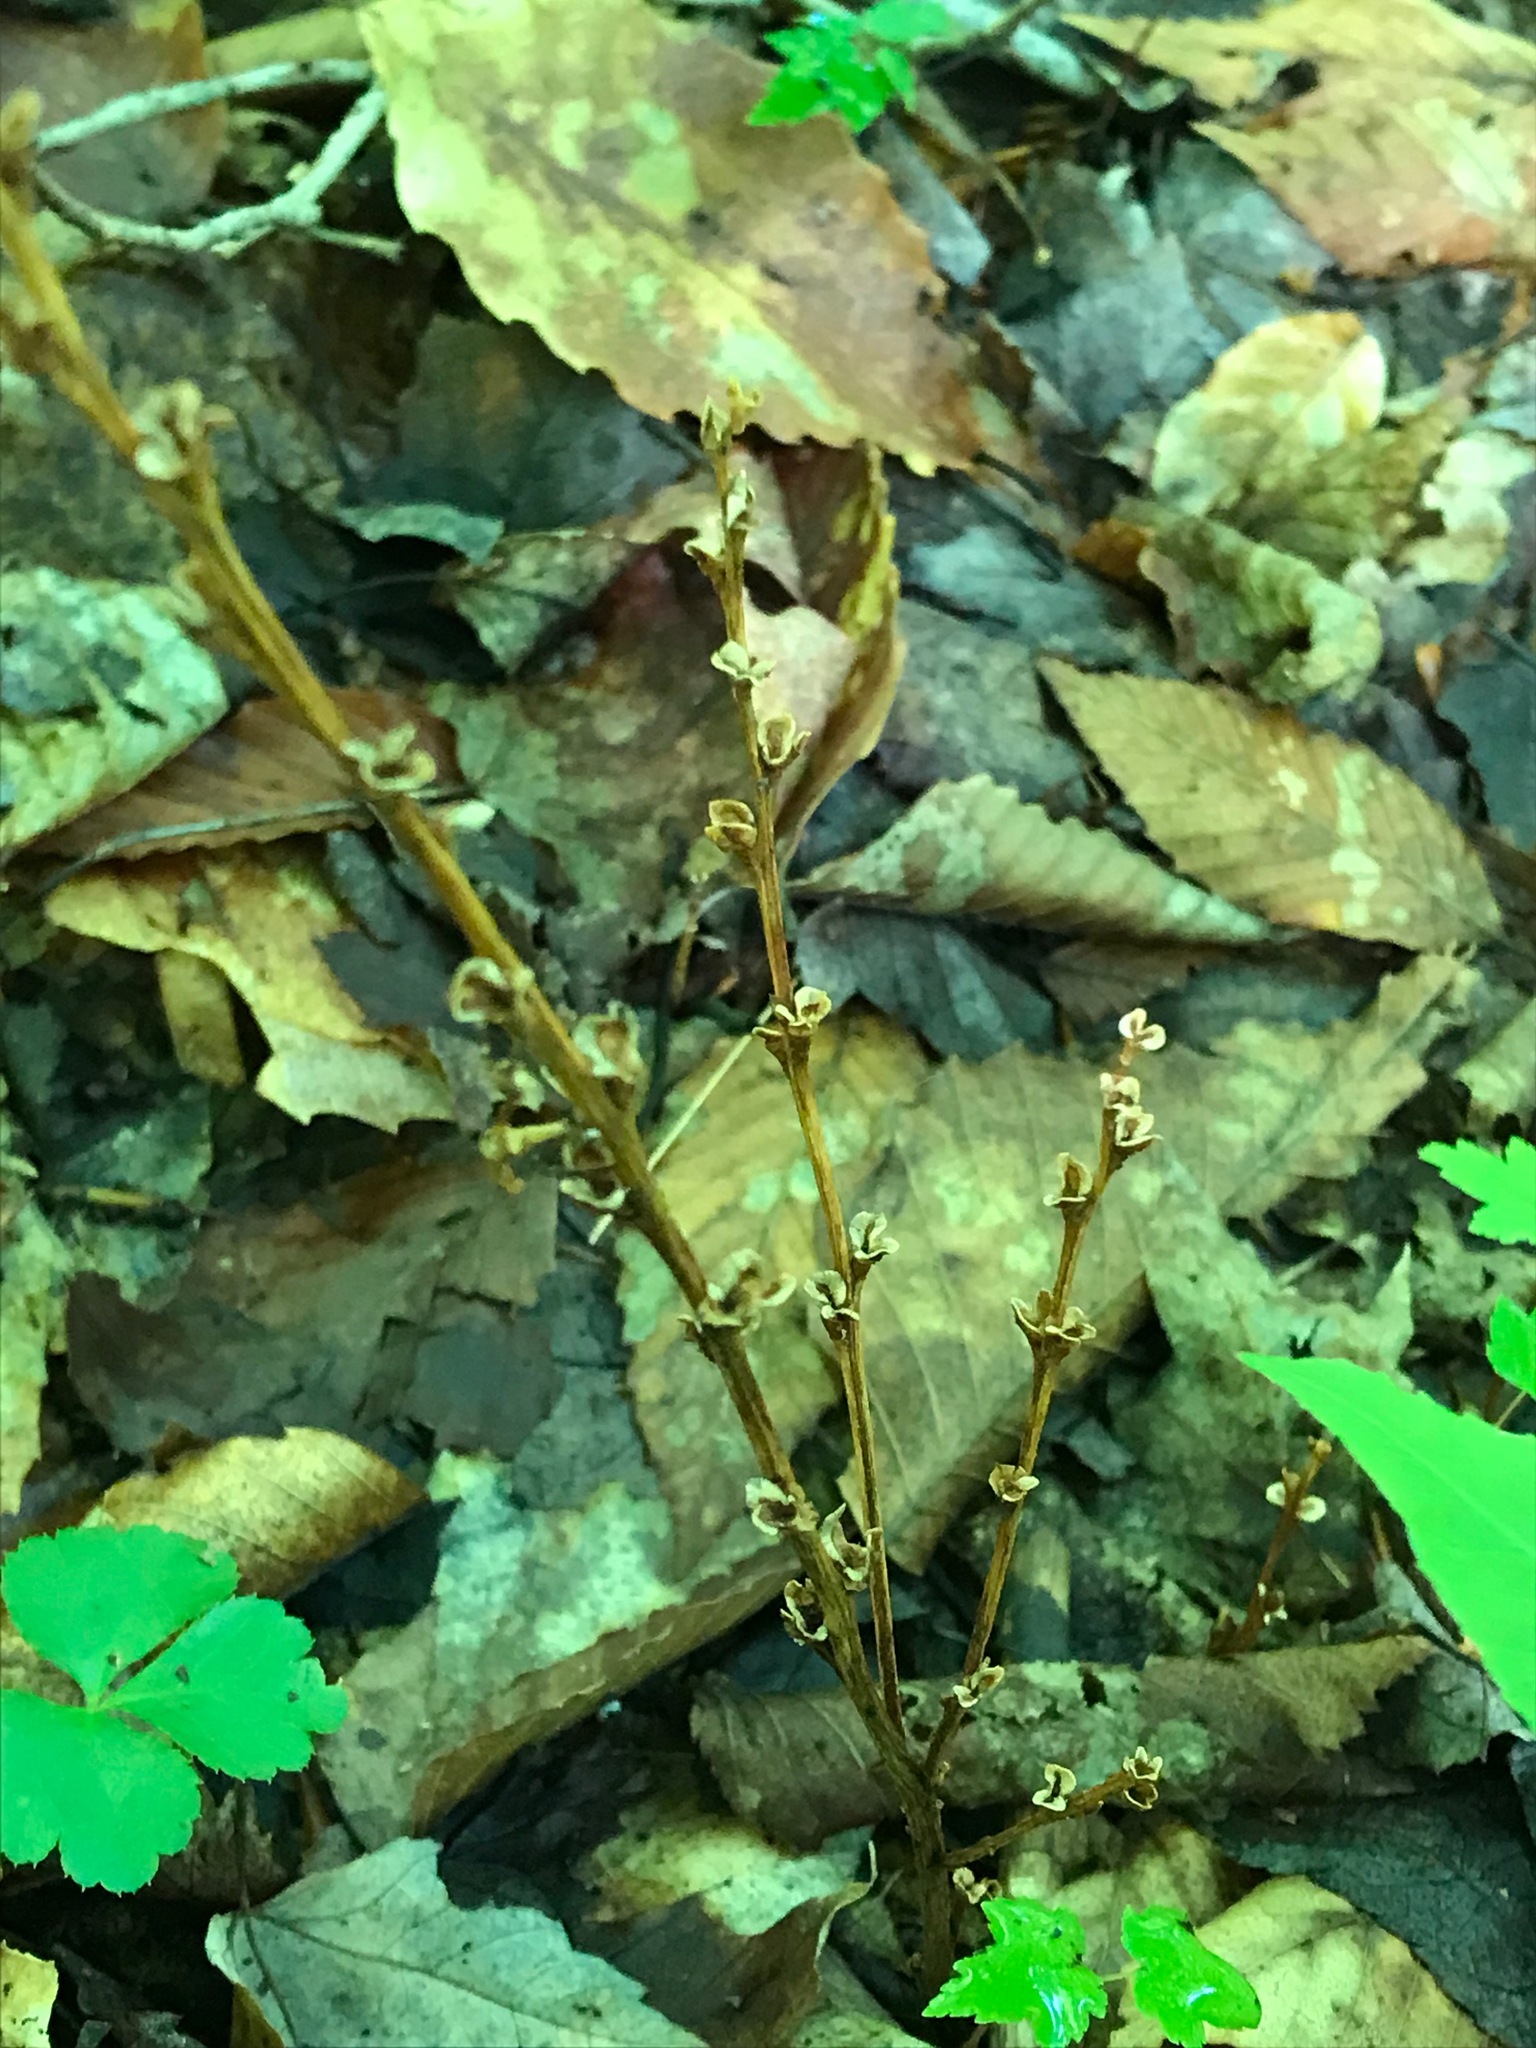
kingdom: Plantae
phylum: Tracheophyta
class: Magnoliopsida
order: Lamiales
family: Orobanchaceae
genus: Epifagus
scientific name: Epifagus virginiana
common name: Beechdrops
